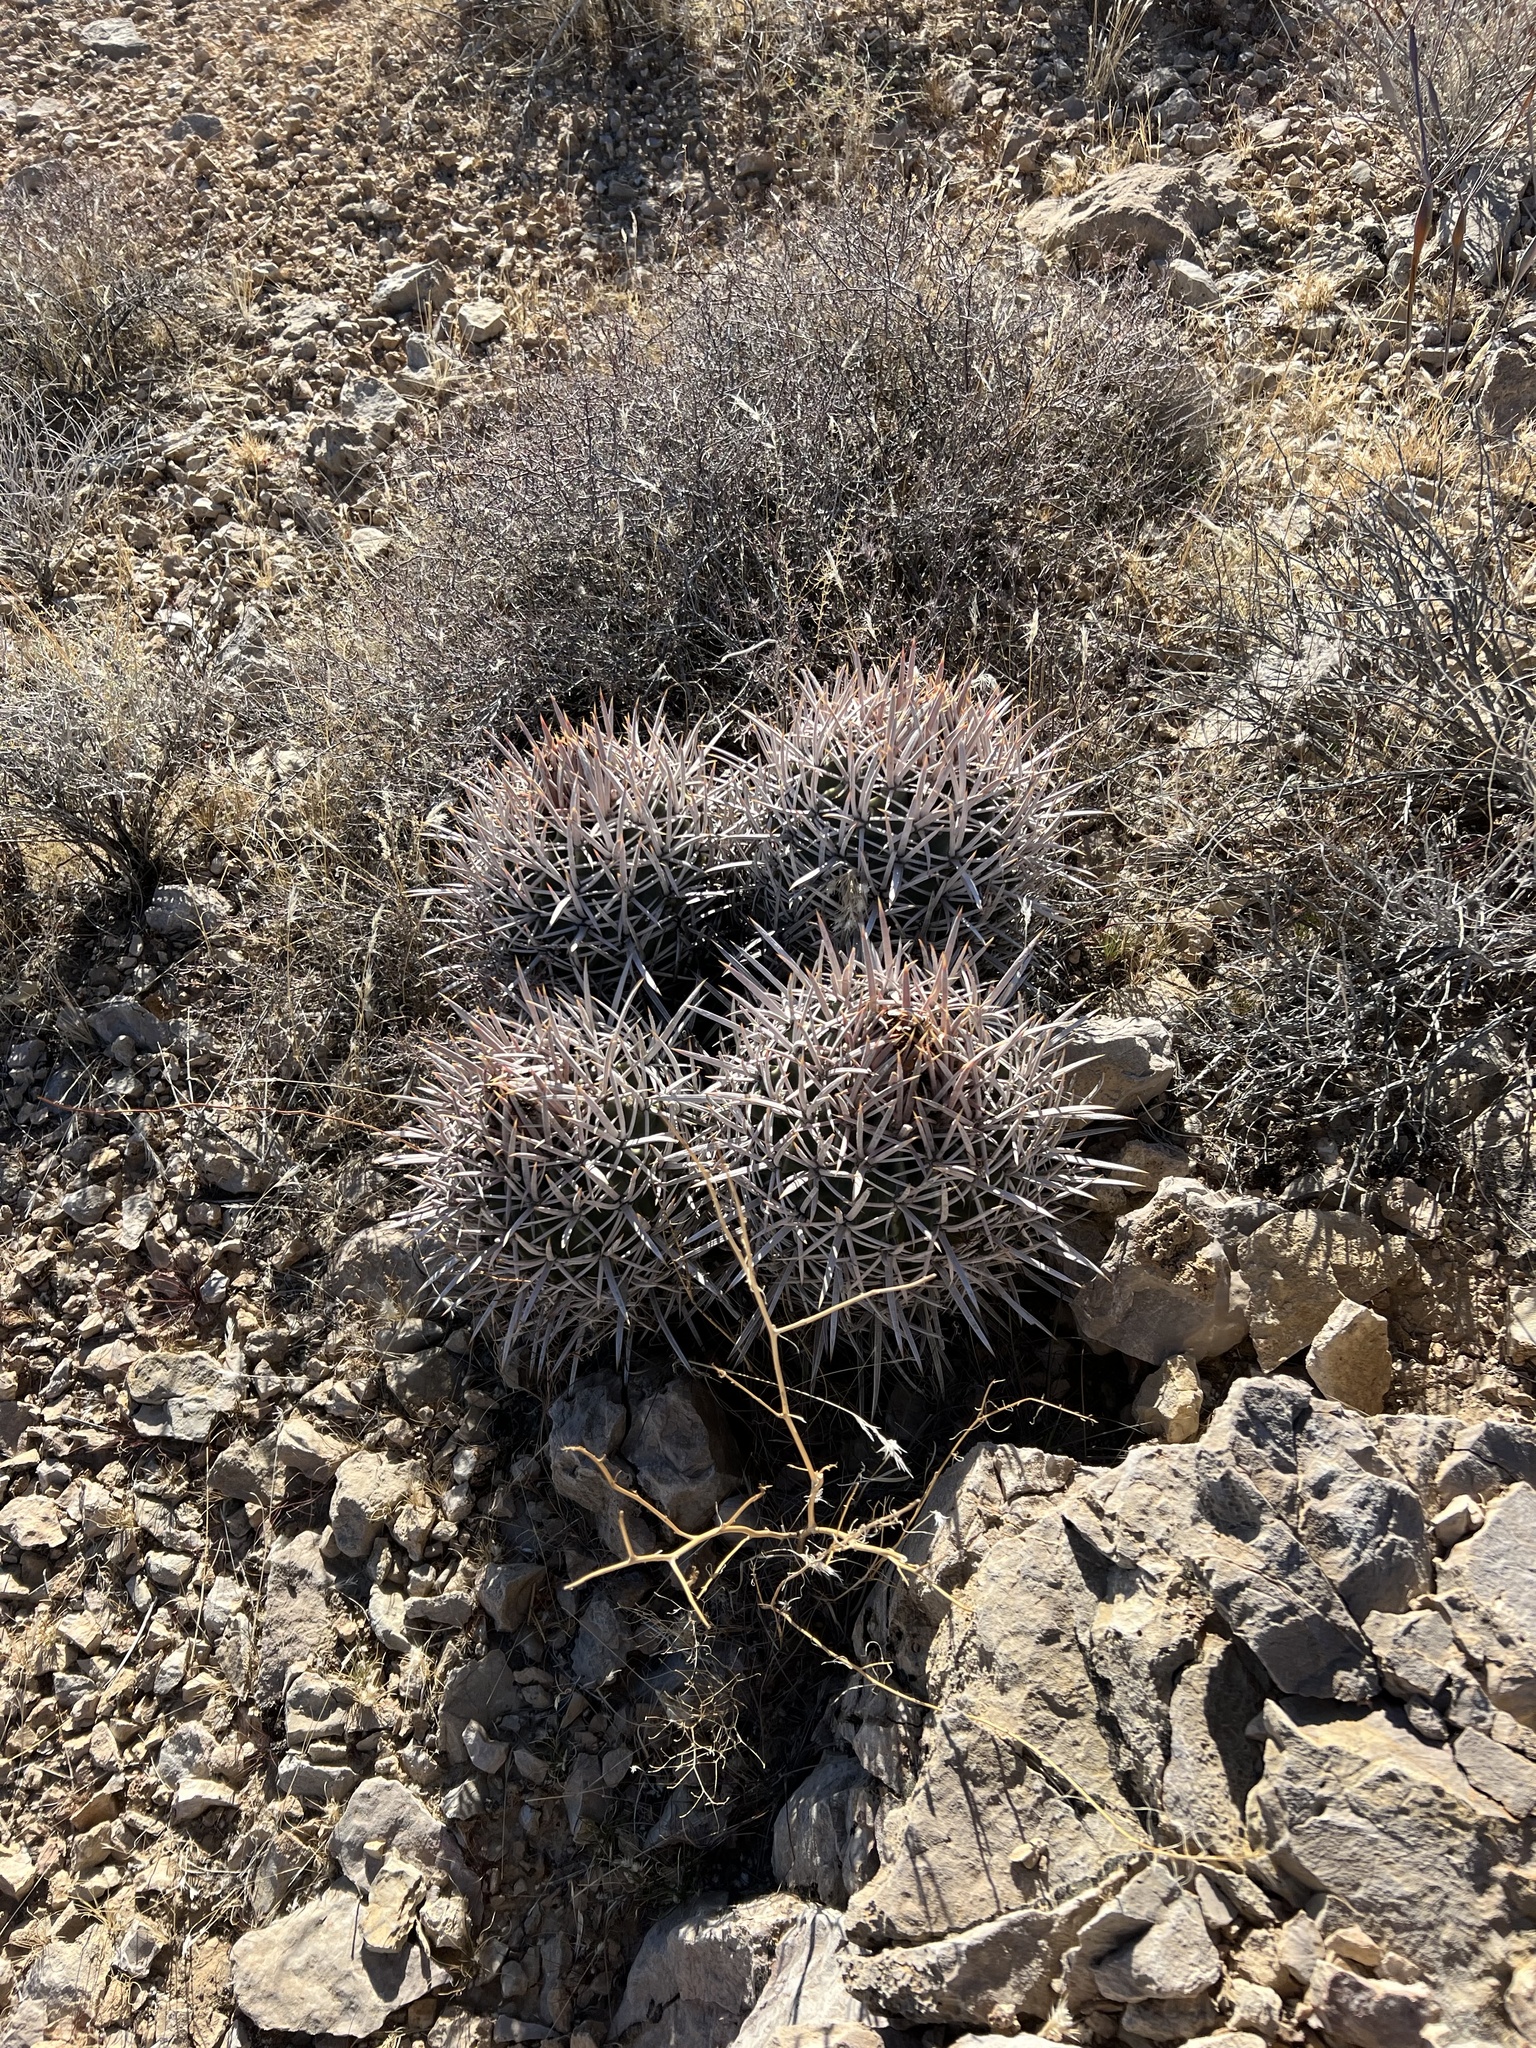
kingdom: Plantae
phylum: Tracheophyta
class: Magnoliopsida
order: Caryophyllales
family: Cactaceae
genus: Echinocactus
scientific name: Echinocactus polycephalus
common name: Cottontop cactus
